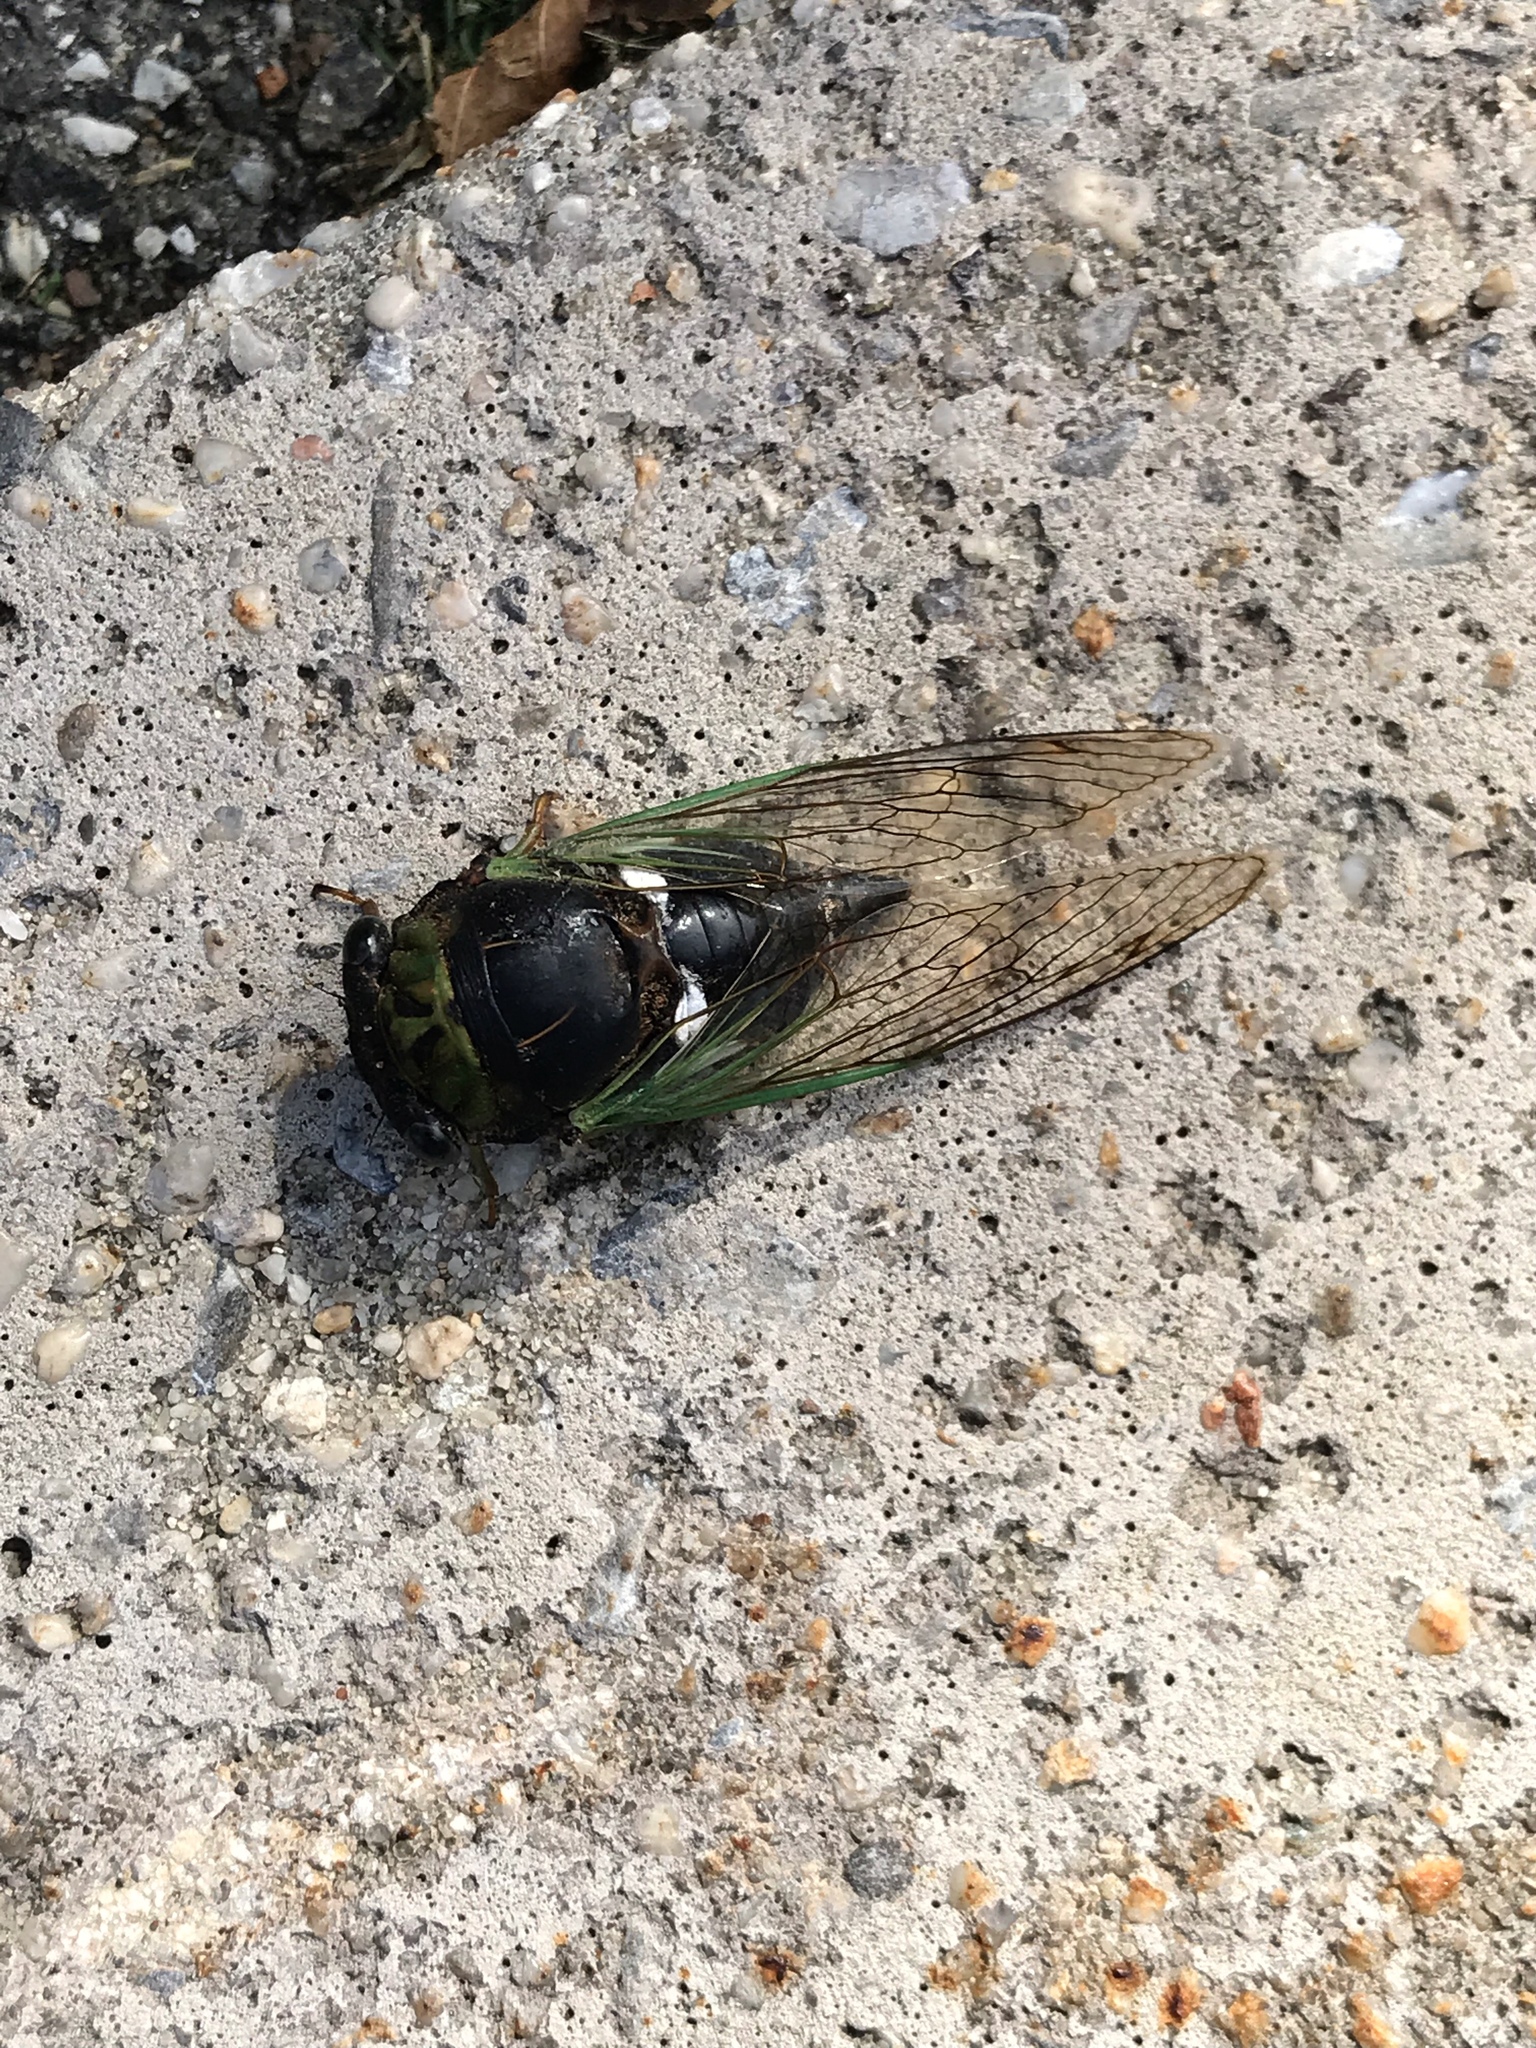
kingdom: Animalia
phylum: Arthropoda
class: Insecta
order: Hemiptera
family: Cicadidae
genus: Neotibicen
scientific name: Neotibicen tibicen
